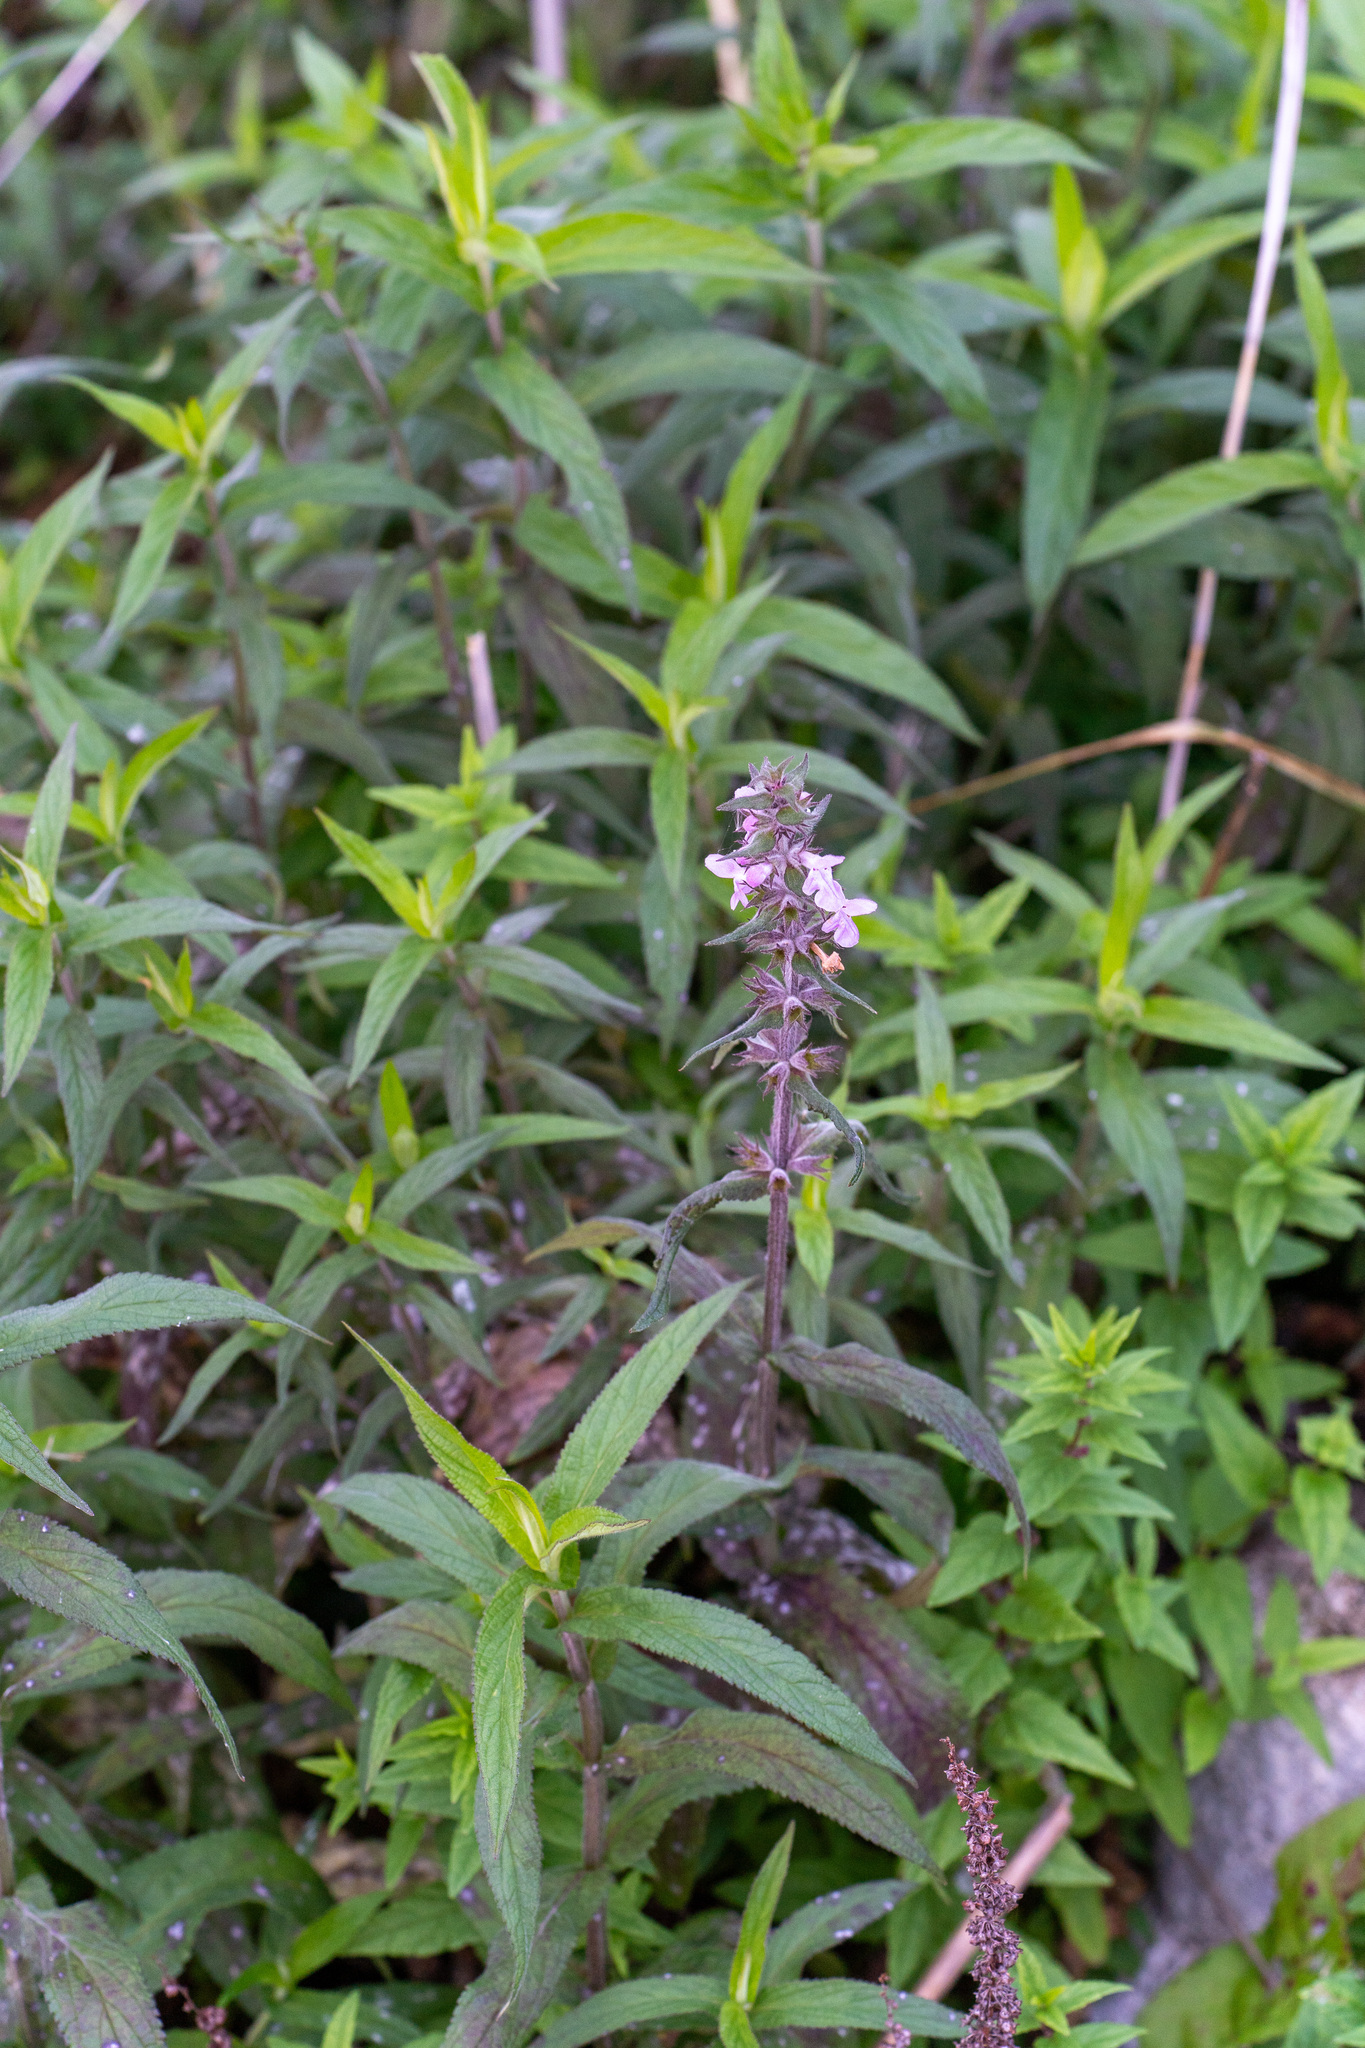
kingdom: Plantae
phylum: Tracheophyta
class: Magnoliopsida
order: Lamiales
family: Lamiaceae
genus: Stachys
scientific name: Stachys palustris
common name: Marsh woundwort
